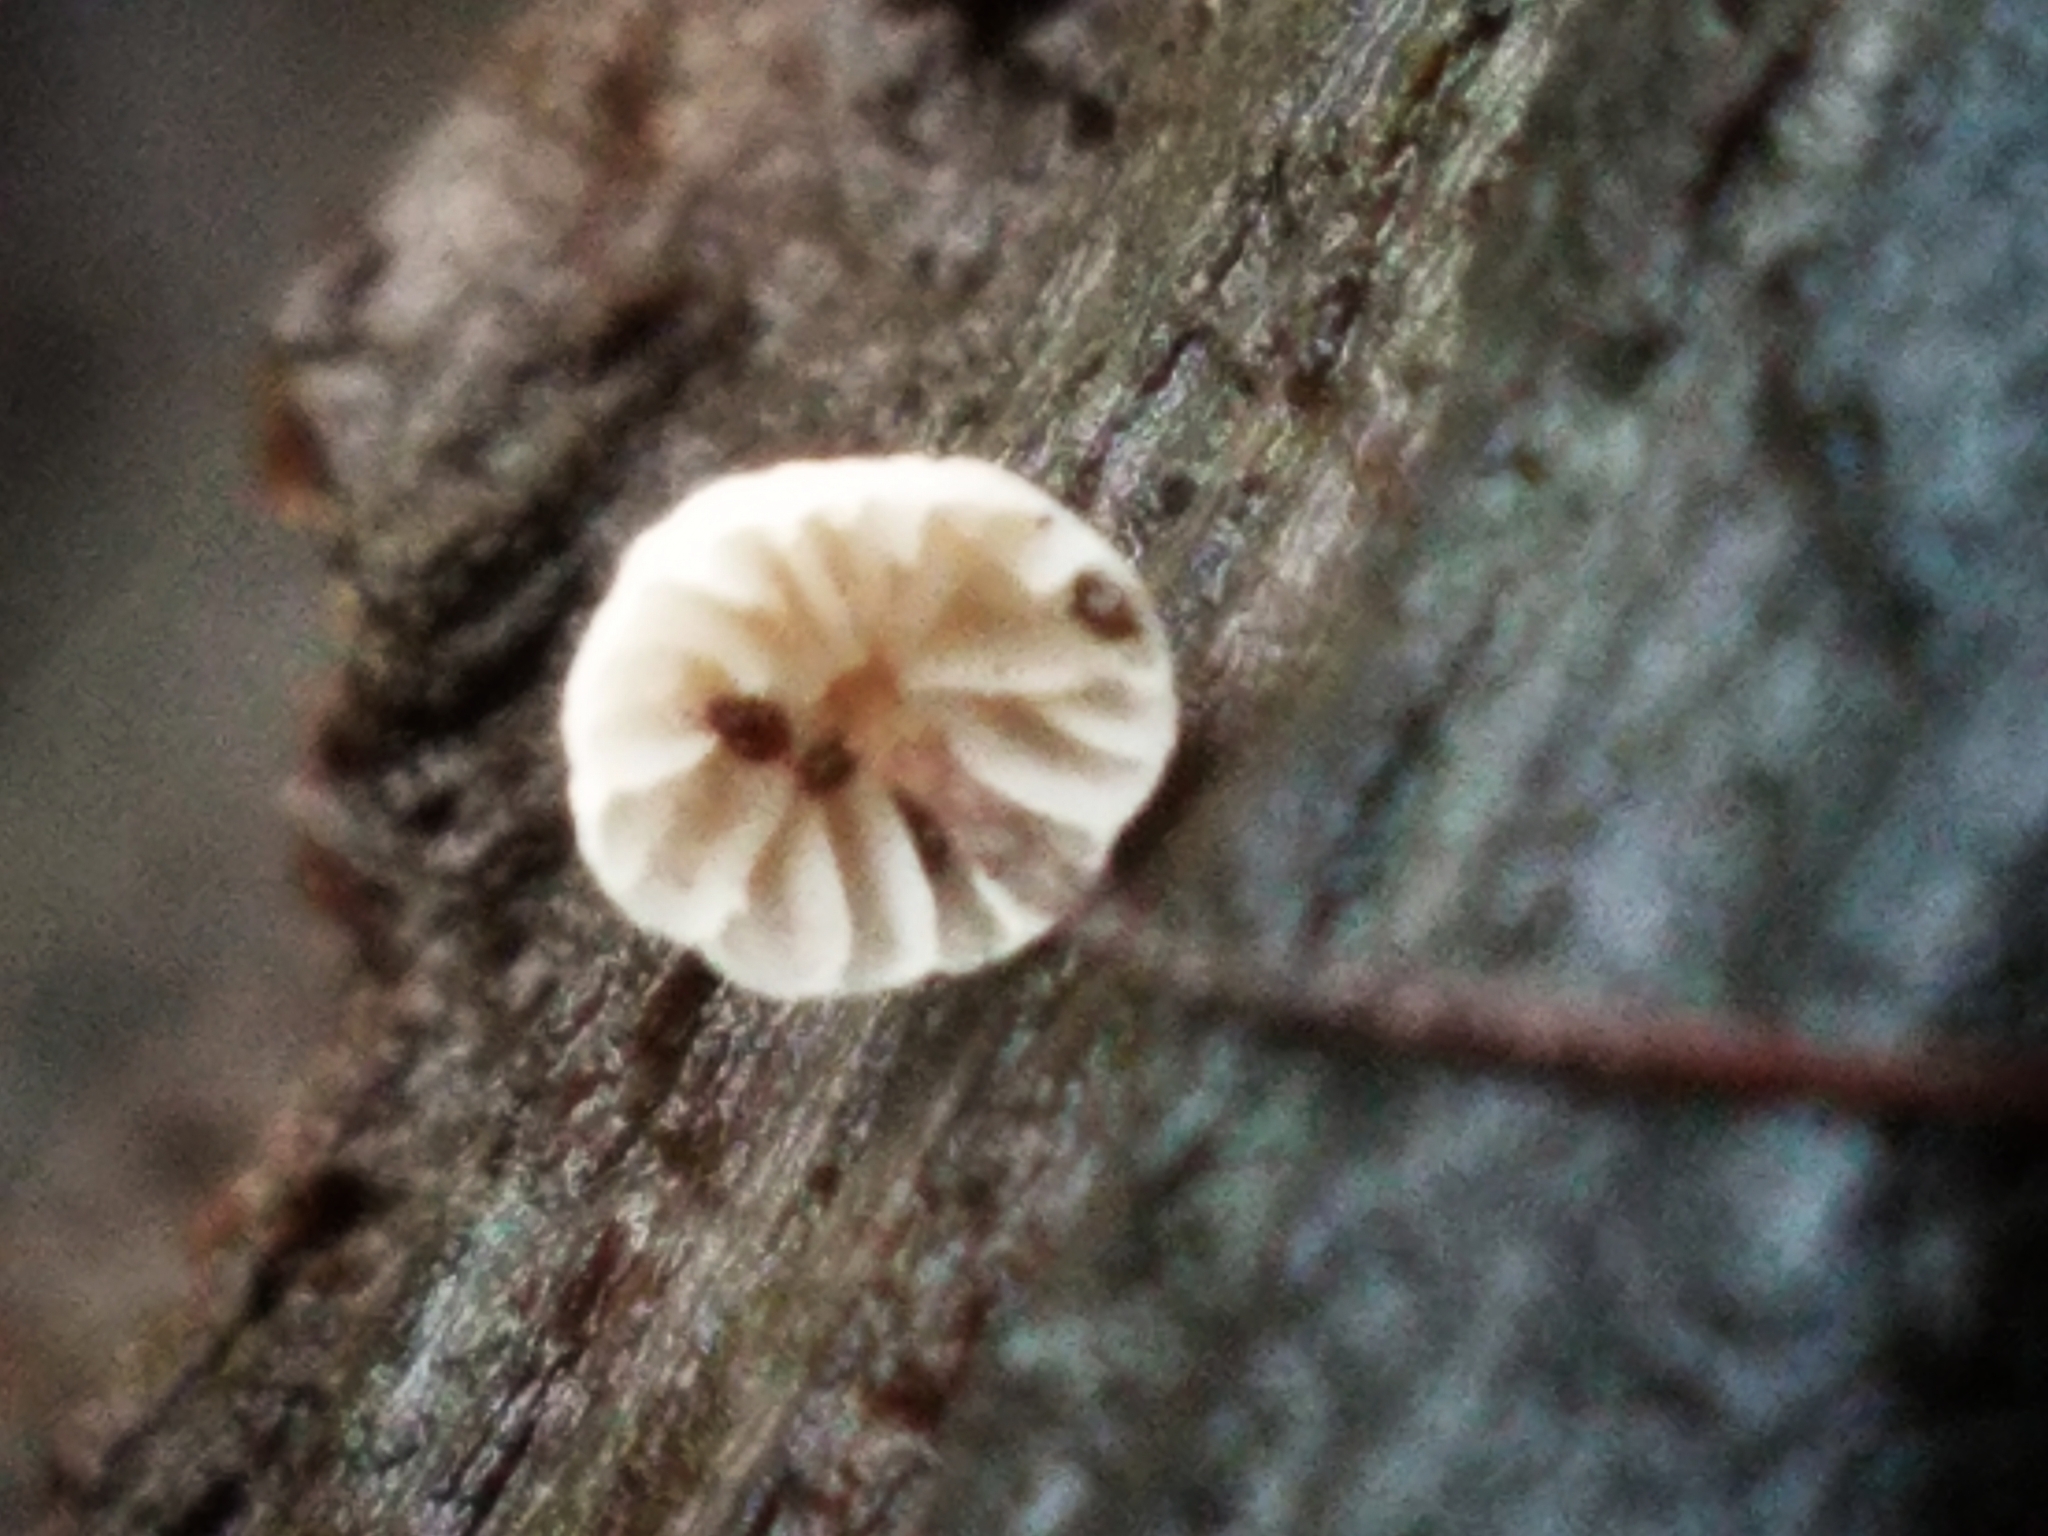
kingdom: Fungi
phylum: Basidiomycota
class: Agaricomycetes
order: Agaricales
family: Omphalotaceae
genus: Collybiopsis
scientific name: Collybiopsis quercophila
